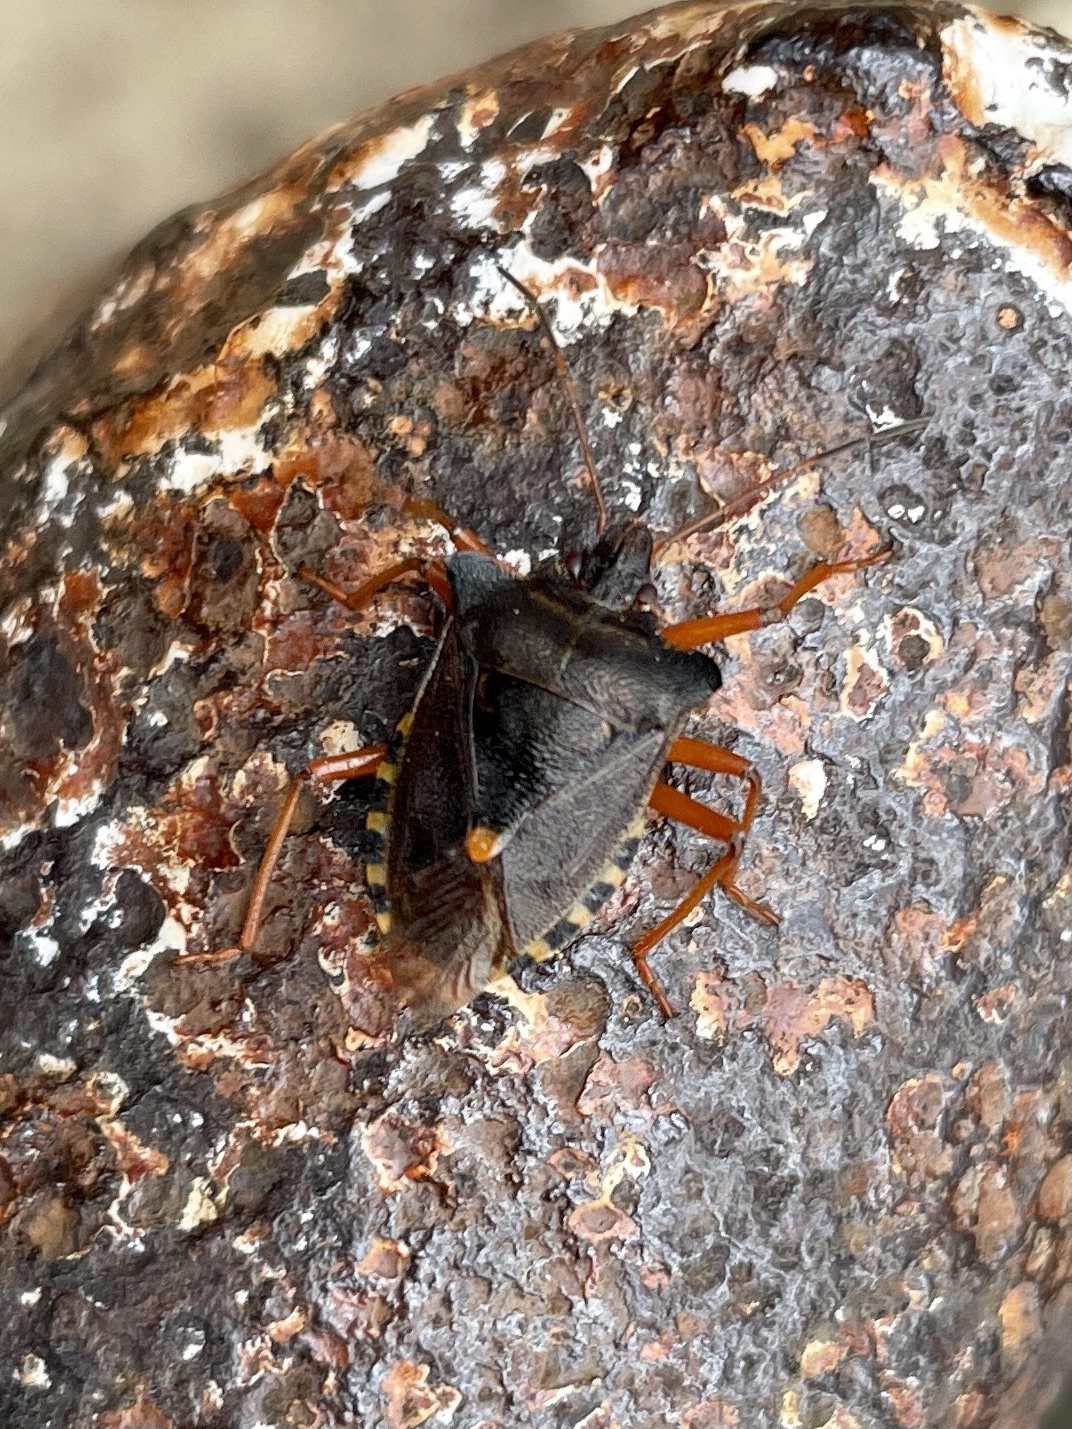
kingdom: Animalia
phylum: Arthropoda
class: Insecta
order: Hemiptera
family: Pentatomidae
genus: Pentatoma
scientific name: Pentatoma rufipes
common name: Forest bug
